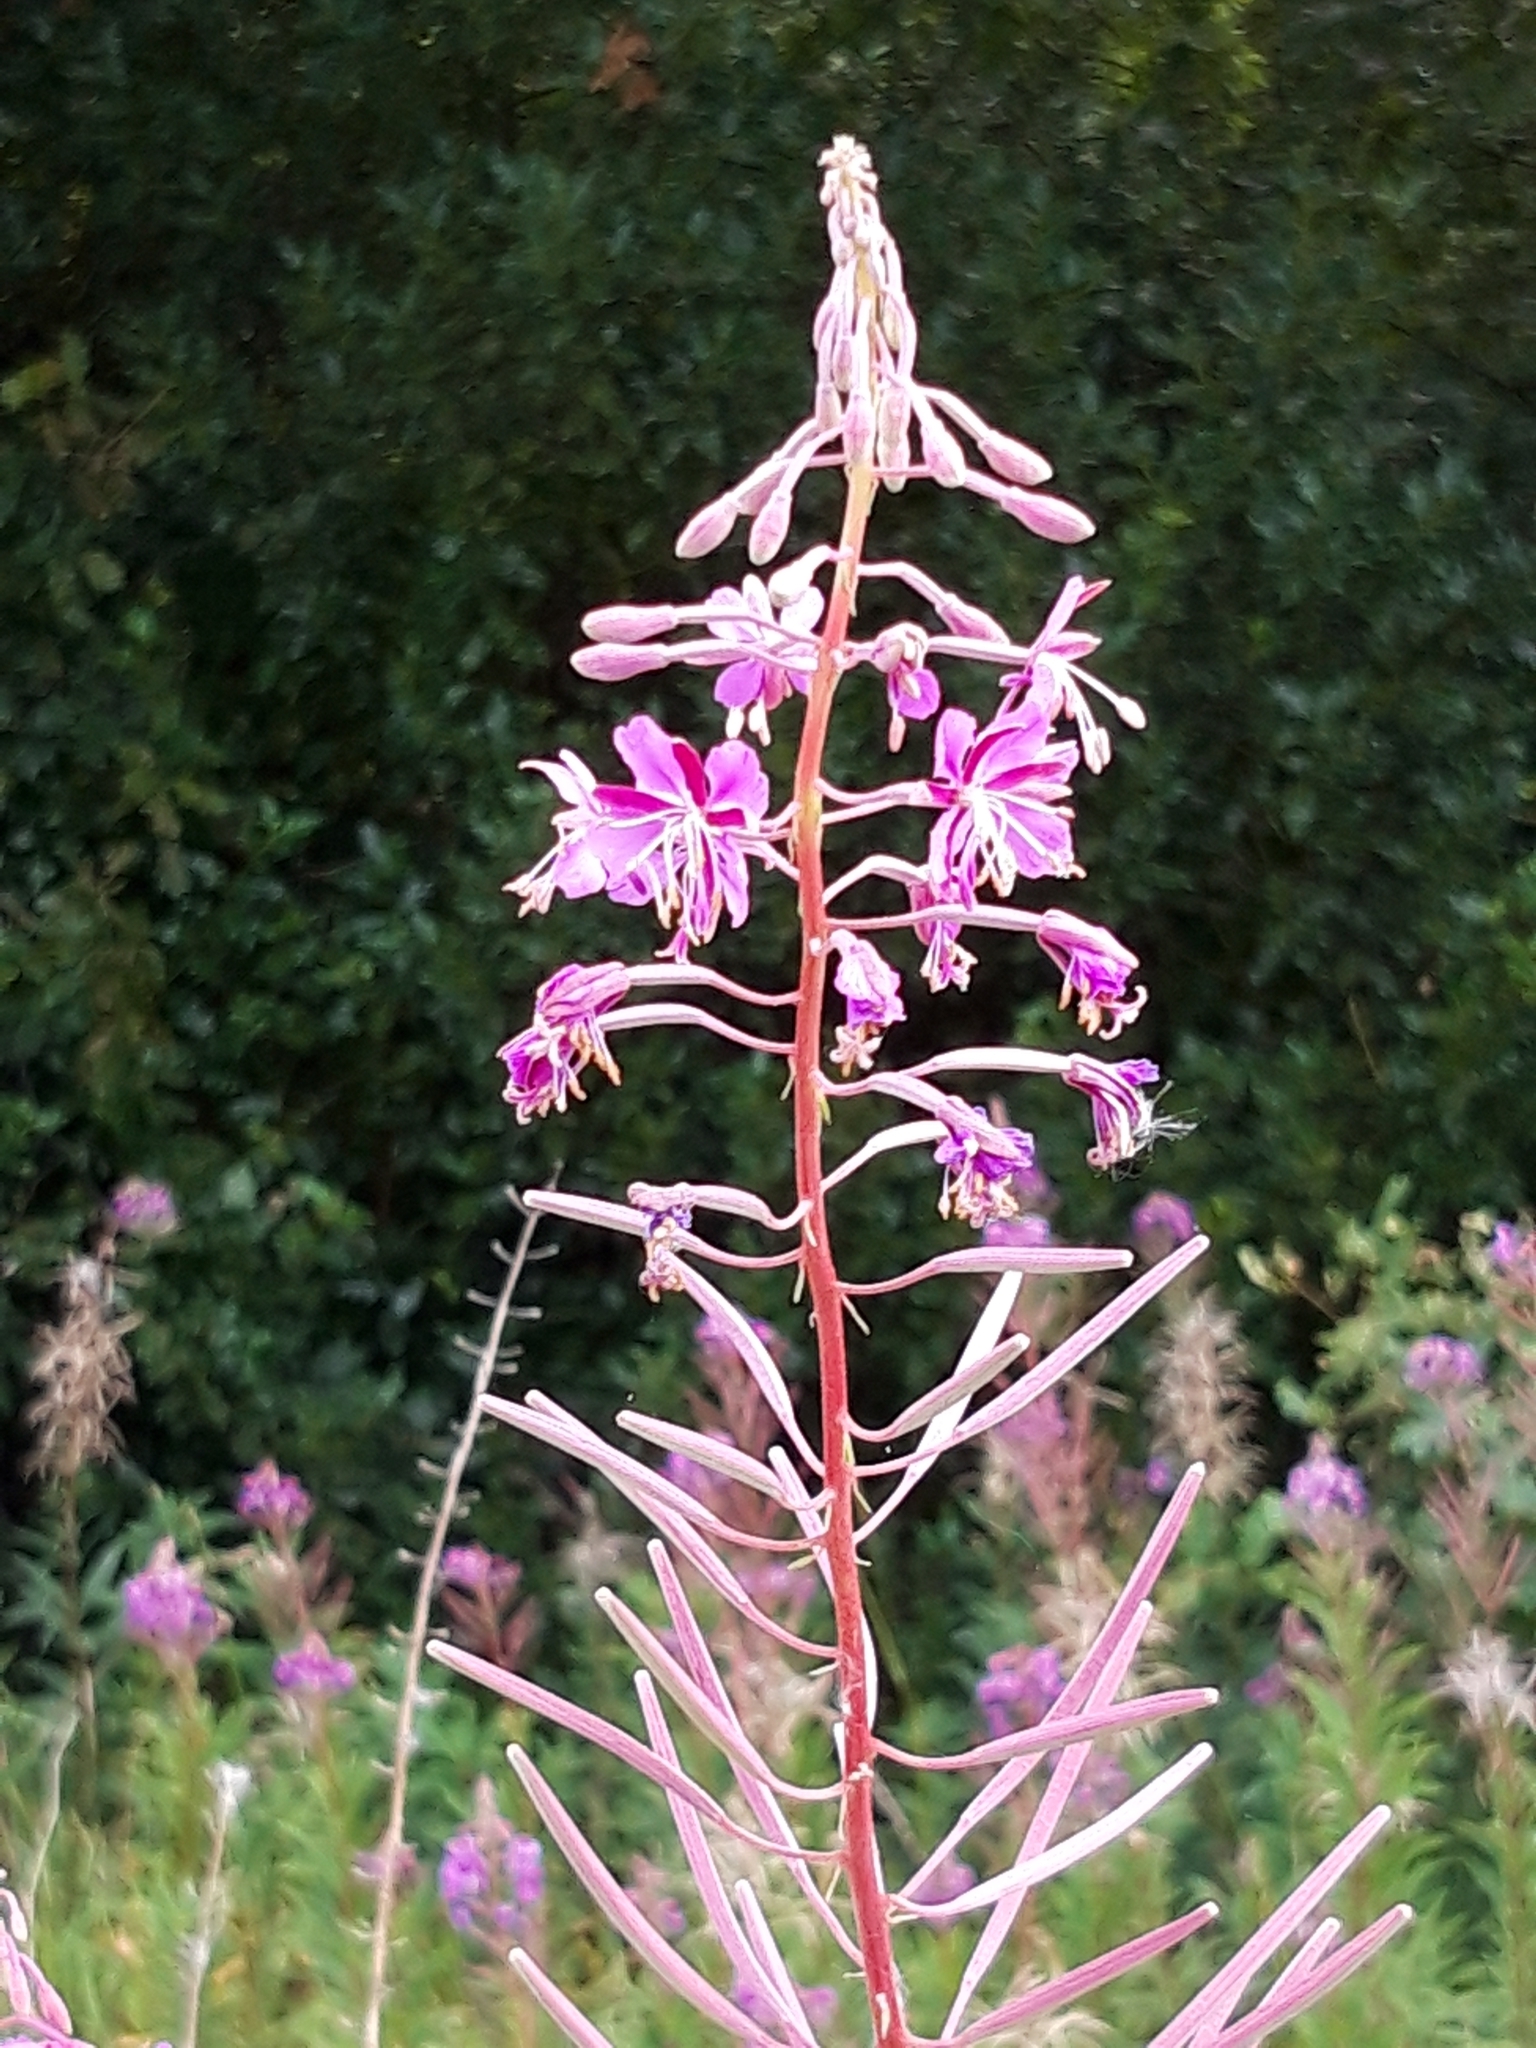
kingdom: Plantae
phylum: Tracheophyta
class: Magnoliopsida
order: Myrtales
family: Onagraceae
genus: Chamaenerion
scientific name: Chamaenerion angustifolium
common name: Fireweed
